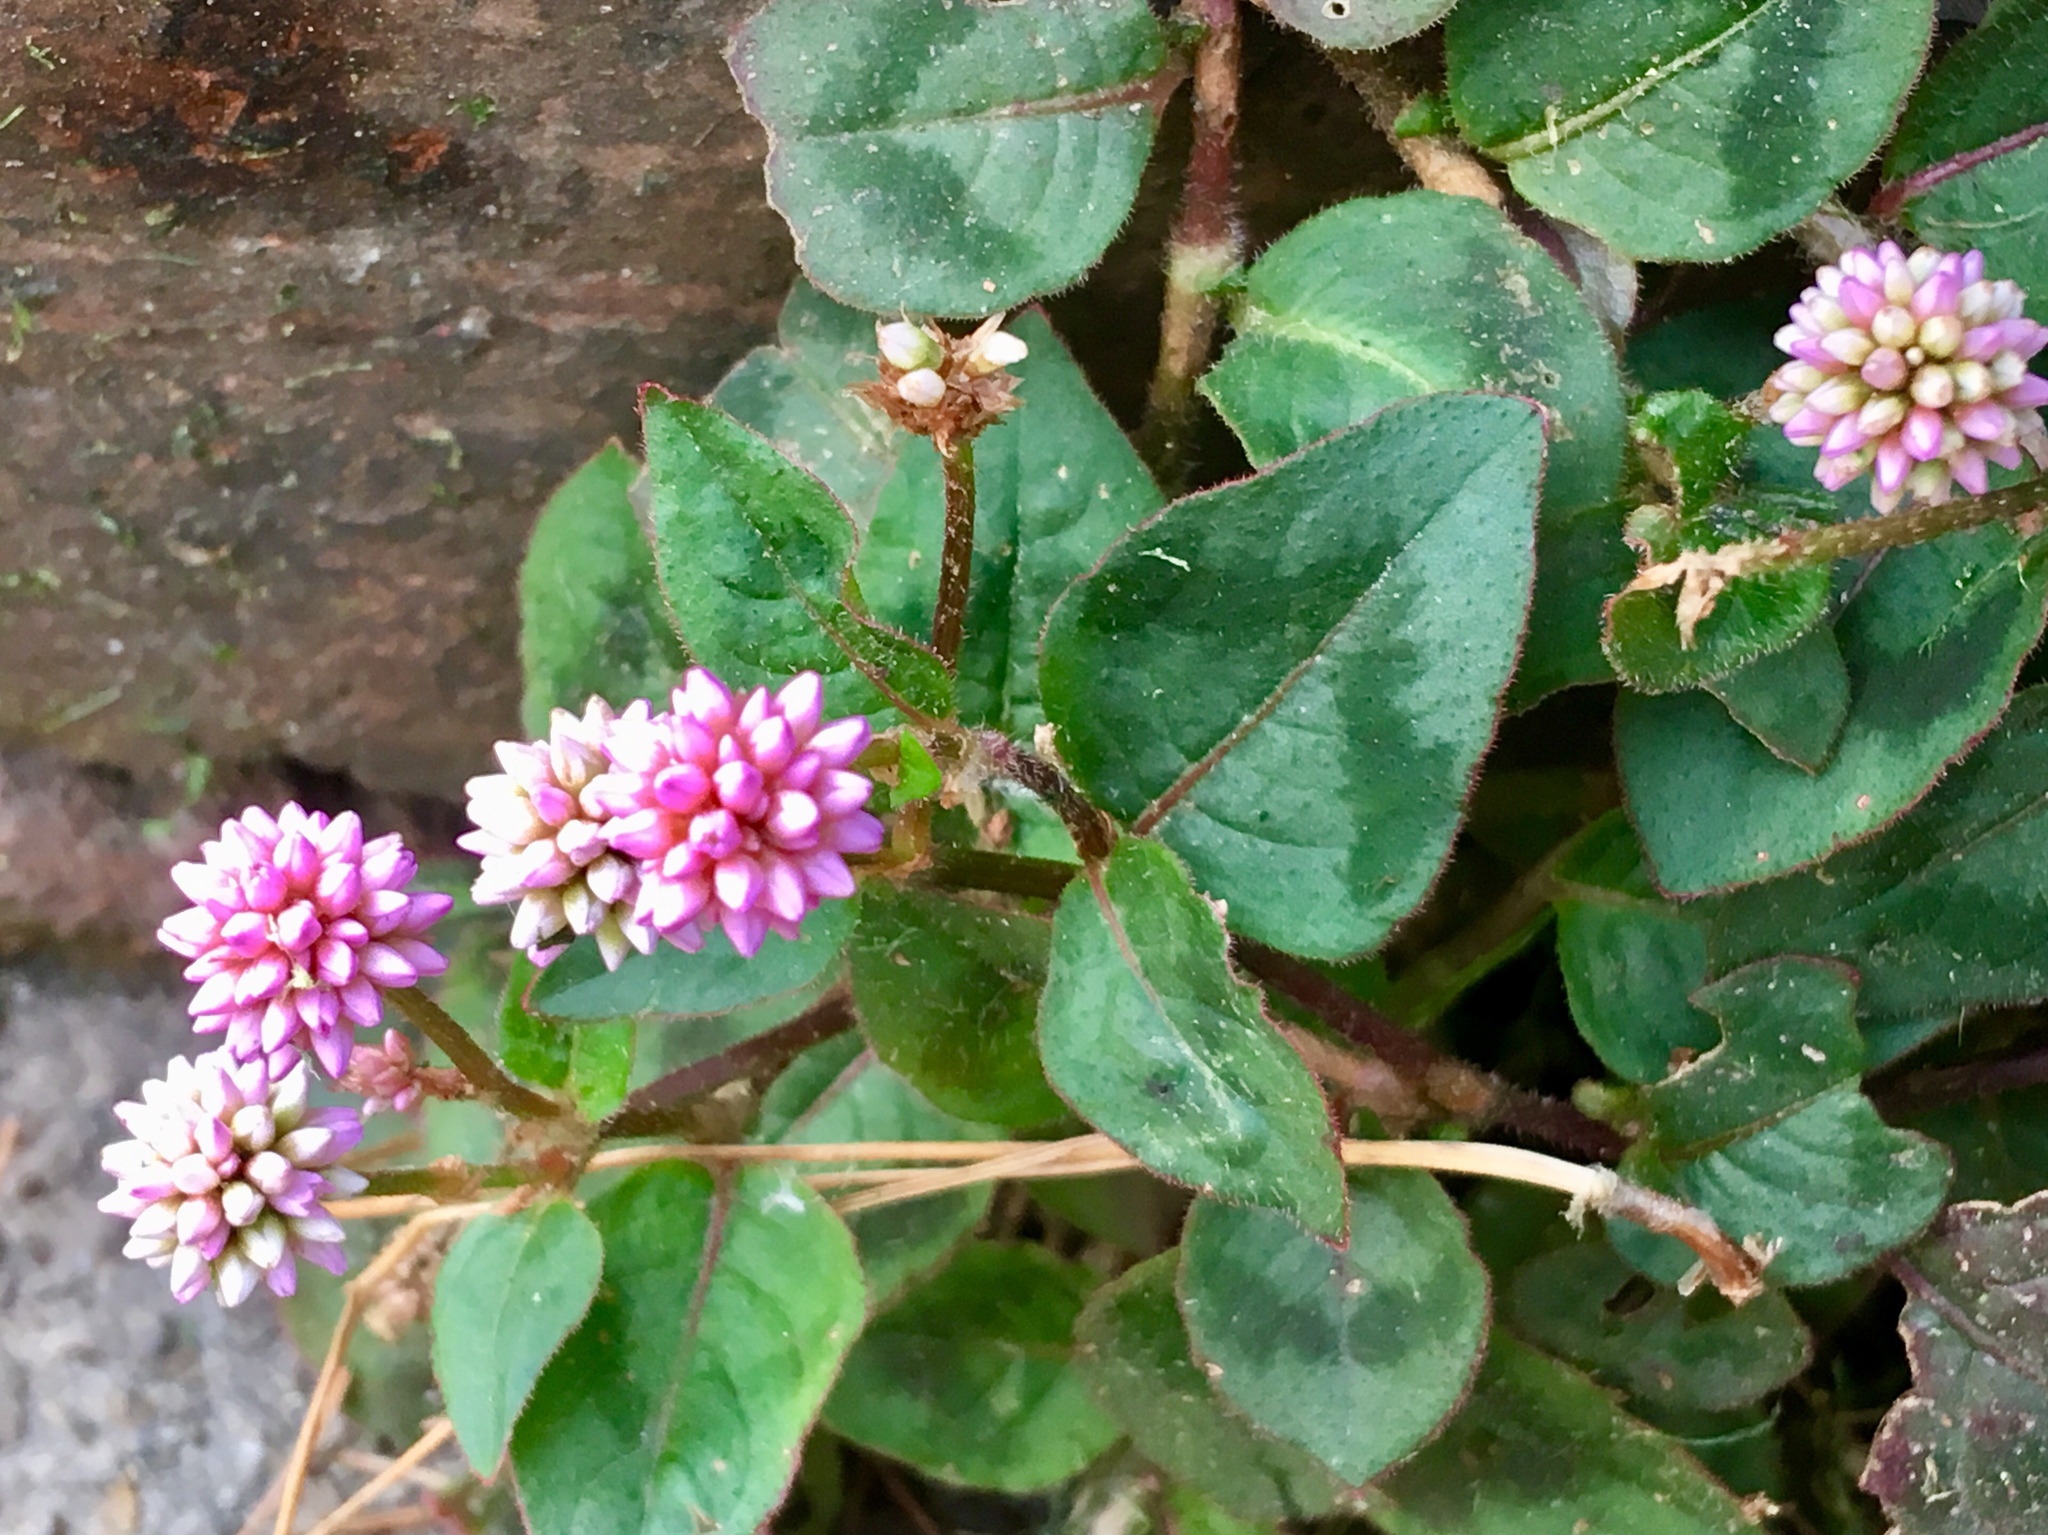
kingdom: Plantae
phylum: Tracheophyta
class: Magnoliopsida
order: Caryophyllales
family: Polygonaceae
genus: Persicaria
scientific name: Persicaria capitata
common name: Pinkhead smartweed
